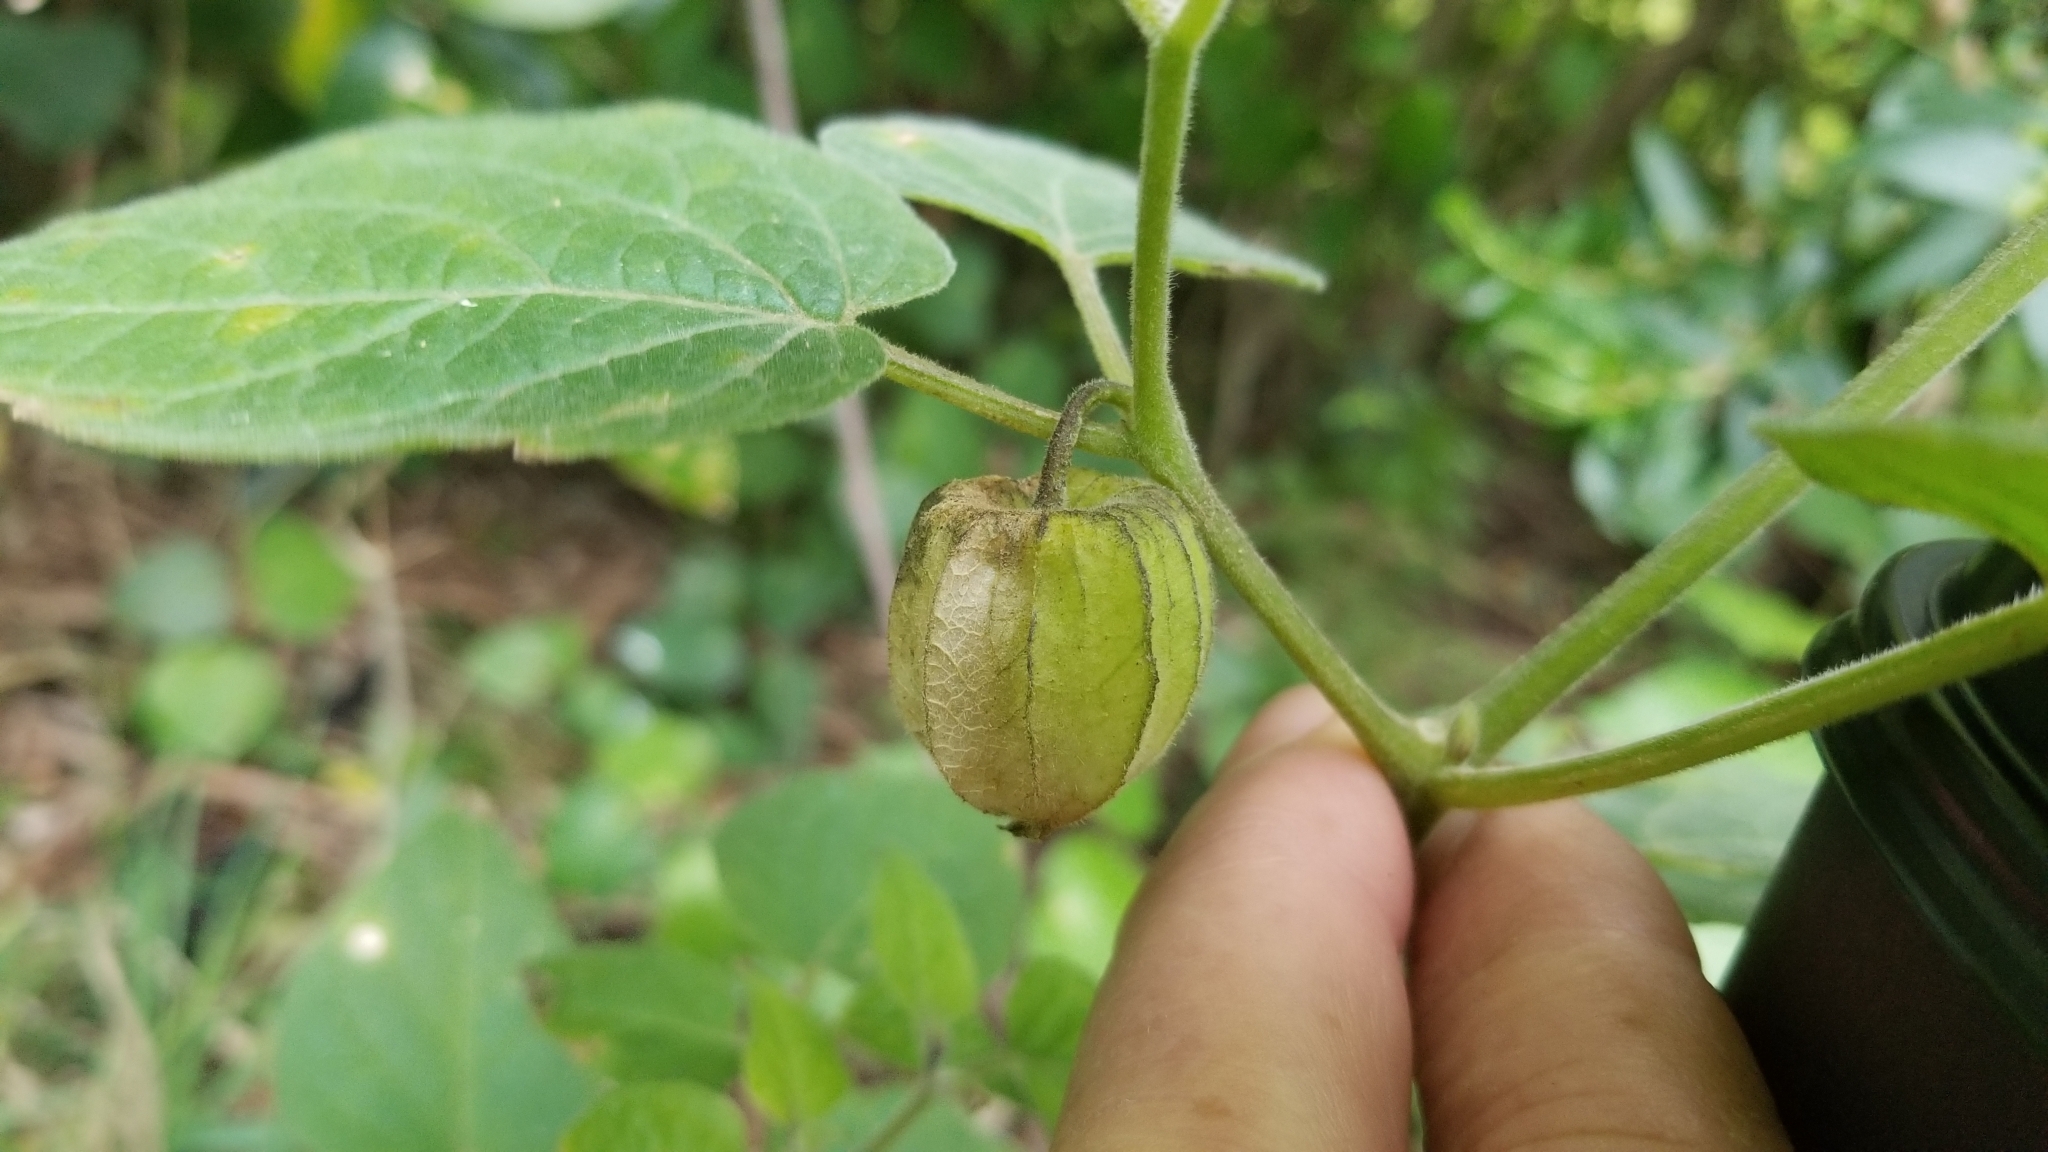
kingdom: Plantae
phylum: Tracheophyta
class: Magnoliopsida
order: Solanales
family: Solanaceae
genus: Physalis
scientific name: Physalis peruviana
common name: Cape-gooseberry
